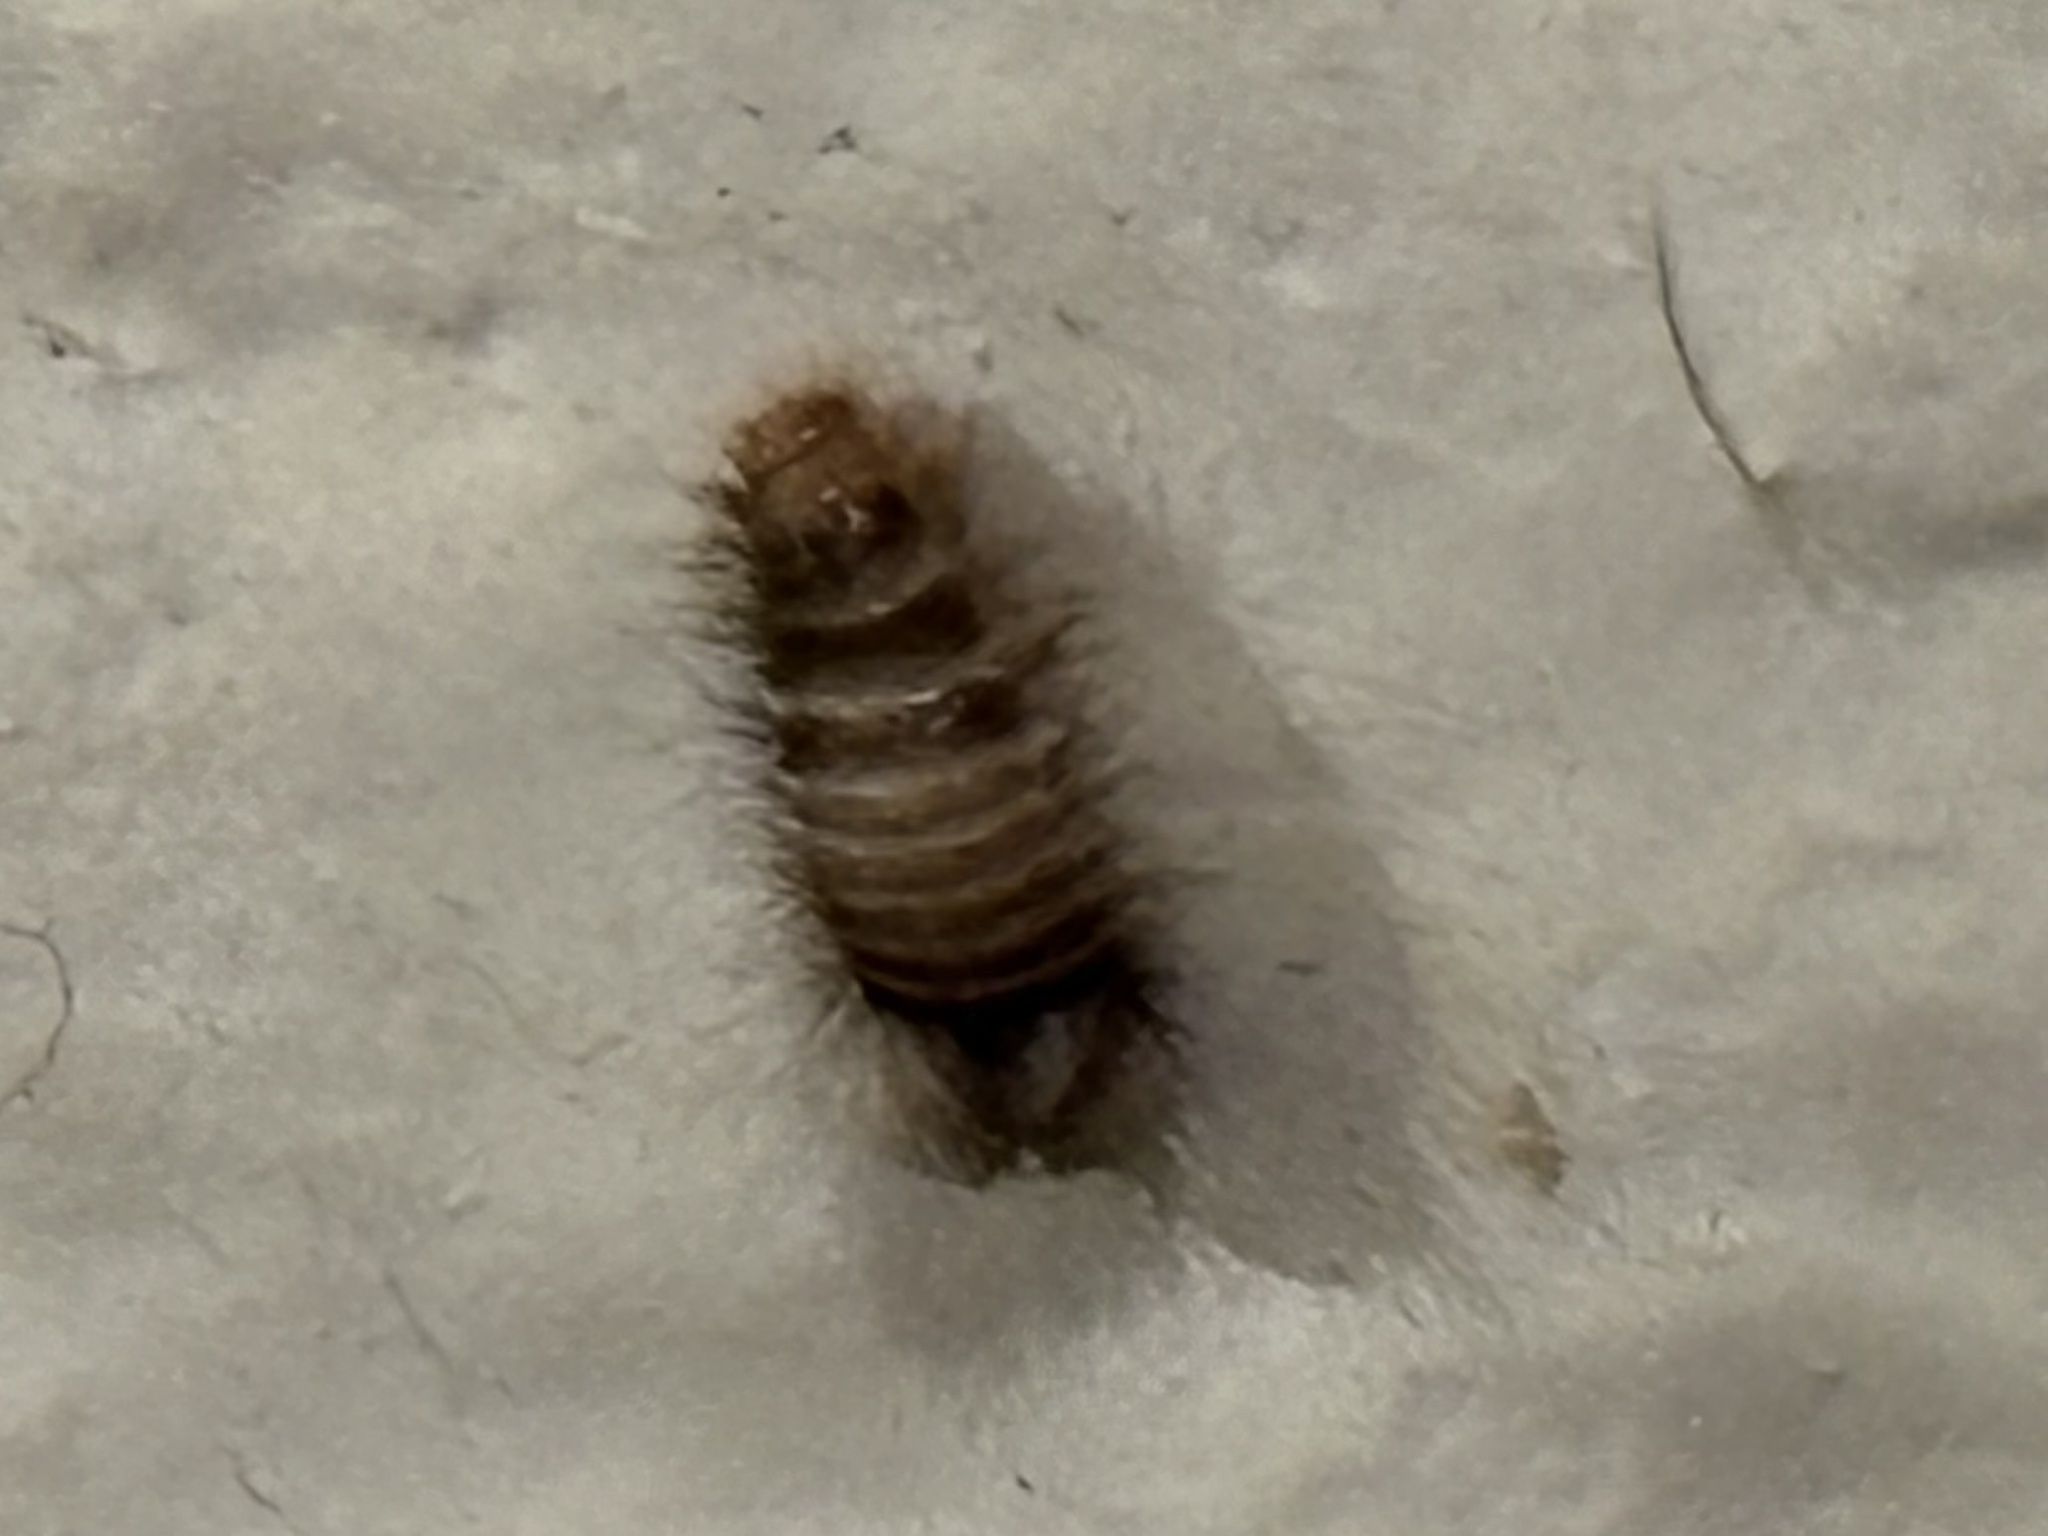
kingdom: Animalia
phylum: Arthropoda
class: Insecta
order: Coleoptera
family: Dermestidae
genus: Anthrenus
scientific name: Anthrenus verbasci
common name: Varied carpet beetle
